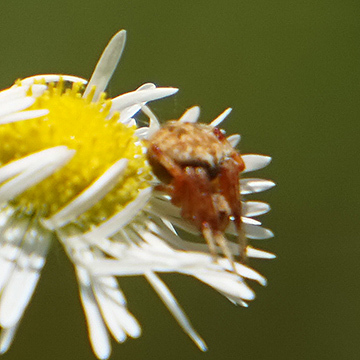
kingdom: Animalia
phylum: Arthropoda
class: Arachnida
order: Araneae
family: Araneidae
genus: Neoscona
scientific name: Neoscona arabesca
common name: Orb weavers
